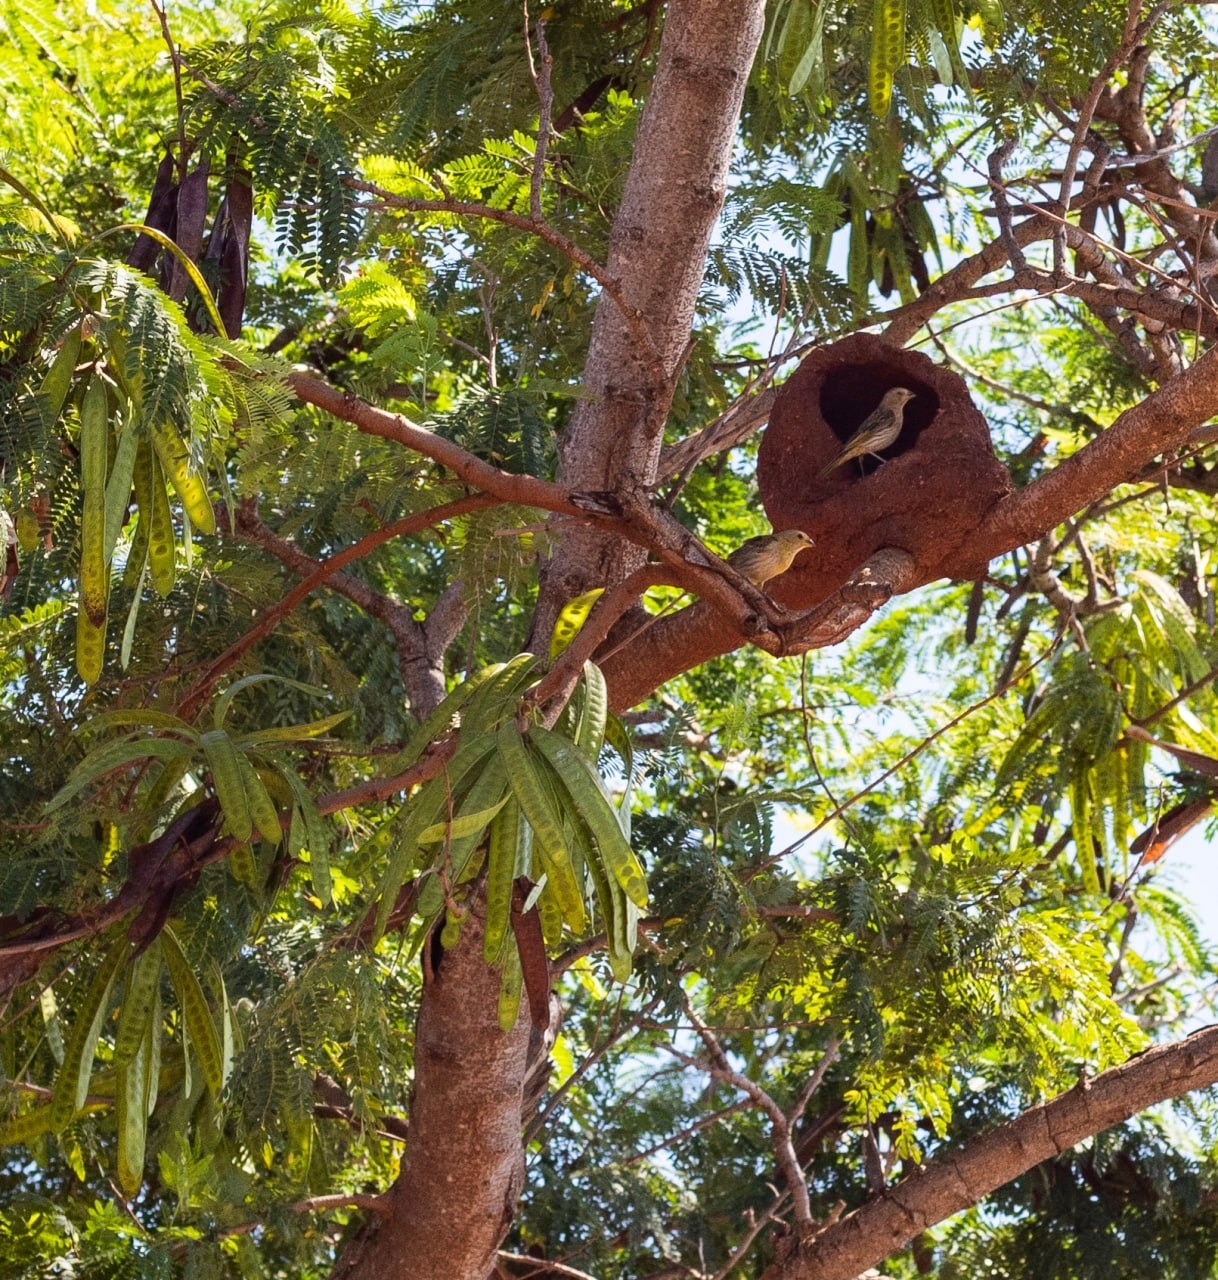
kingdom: Animalia
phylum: Chordata
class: Aves
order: Passeriformes
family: Thraupidae
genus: Sicalis
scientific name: Sicalis flaveola
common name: Saffron finch
